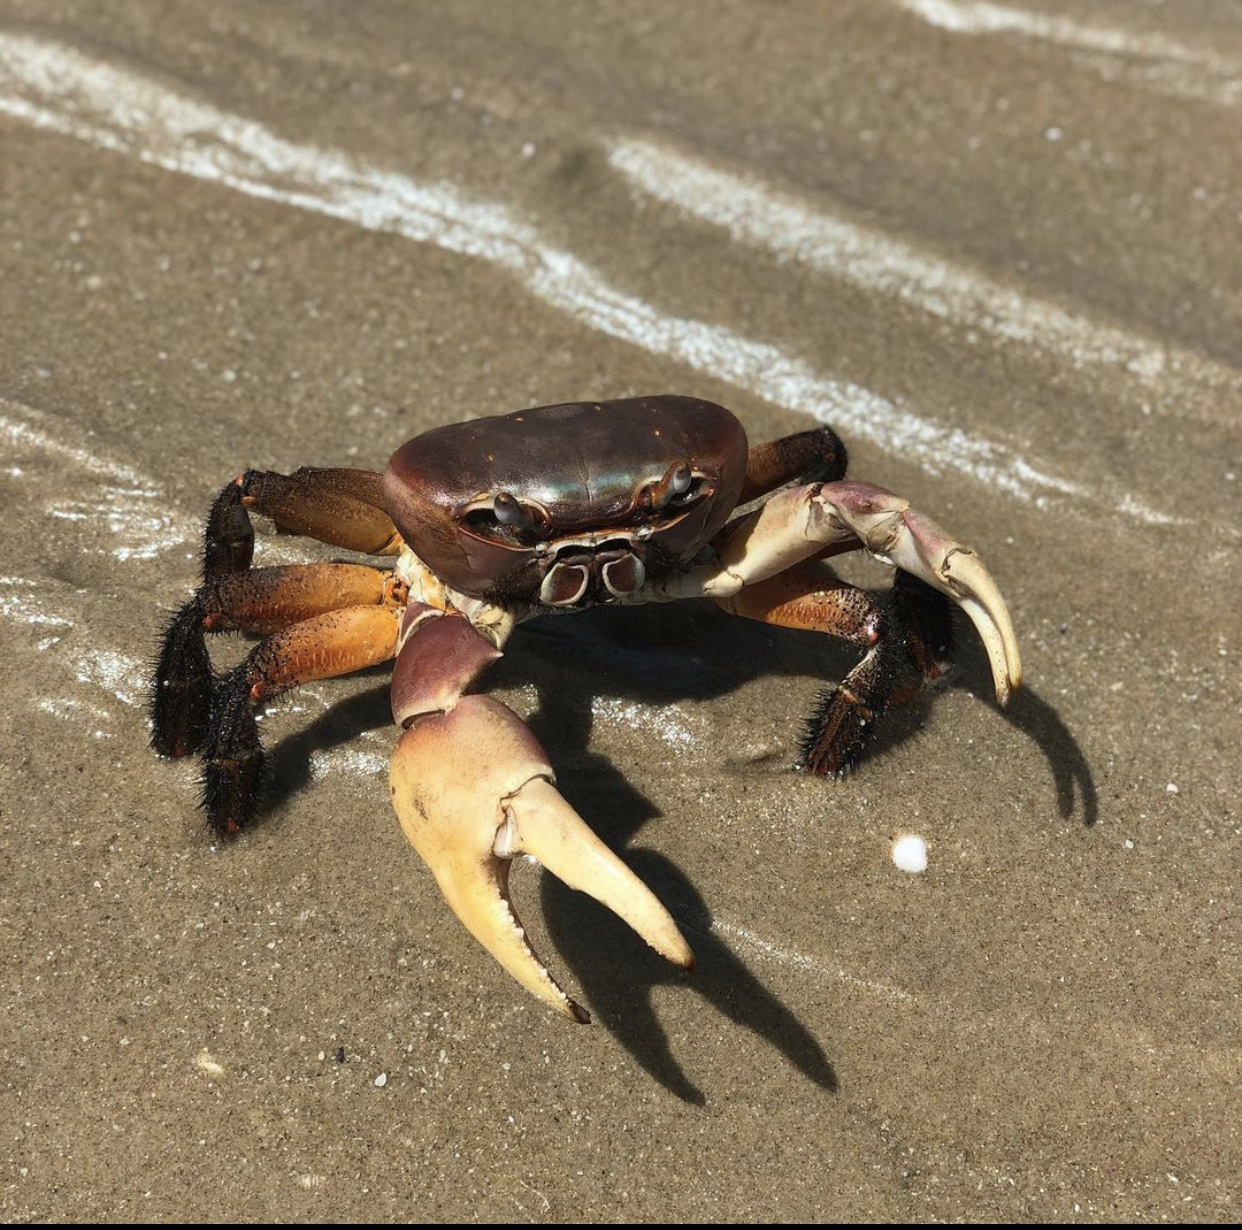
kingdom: Animalia
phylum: Arthropoda
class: Malacostraca
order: Decapoda
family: Gecarcinidae
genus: Cardisoma
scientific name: Cardisoma carnifex
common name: Brown land crab
